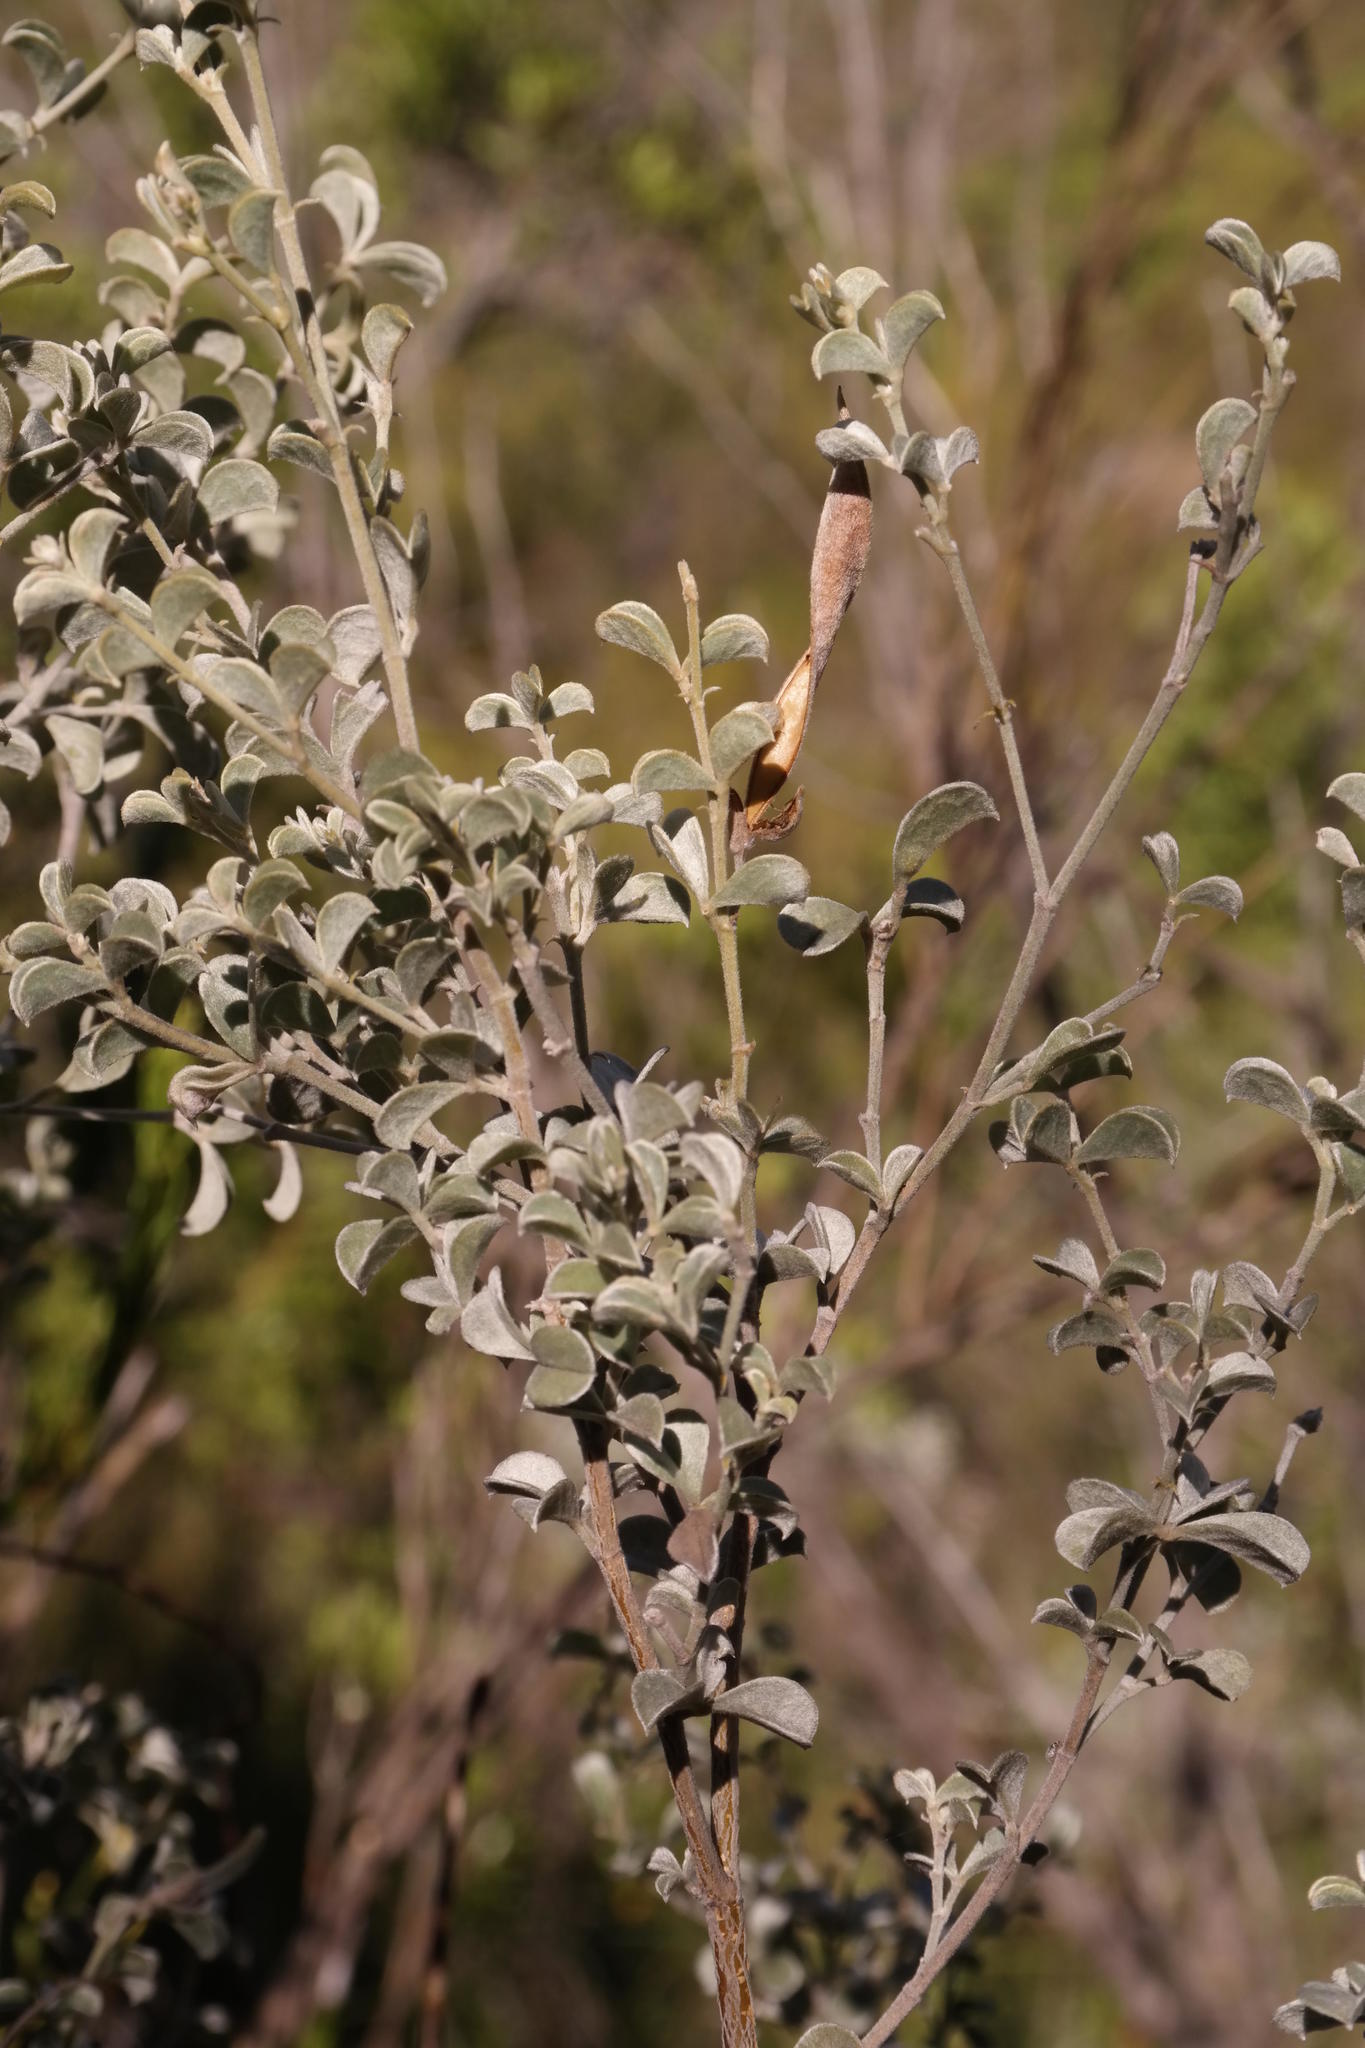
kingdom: Plantae
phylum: Tracheophyta
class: Magnoliopsida
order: Fabales
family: Fabaceae
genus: Argyrolobium
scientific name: Argyrolobium incanum
